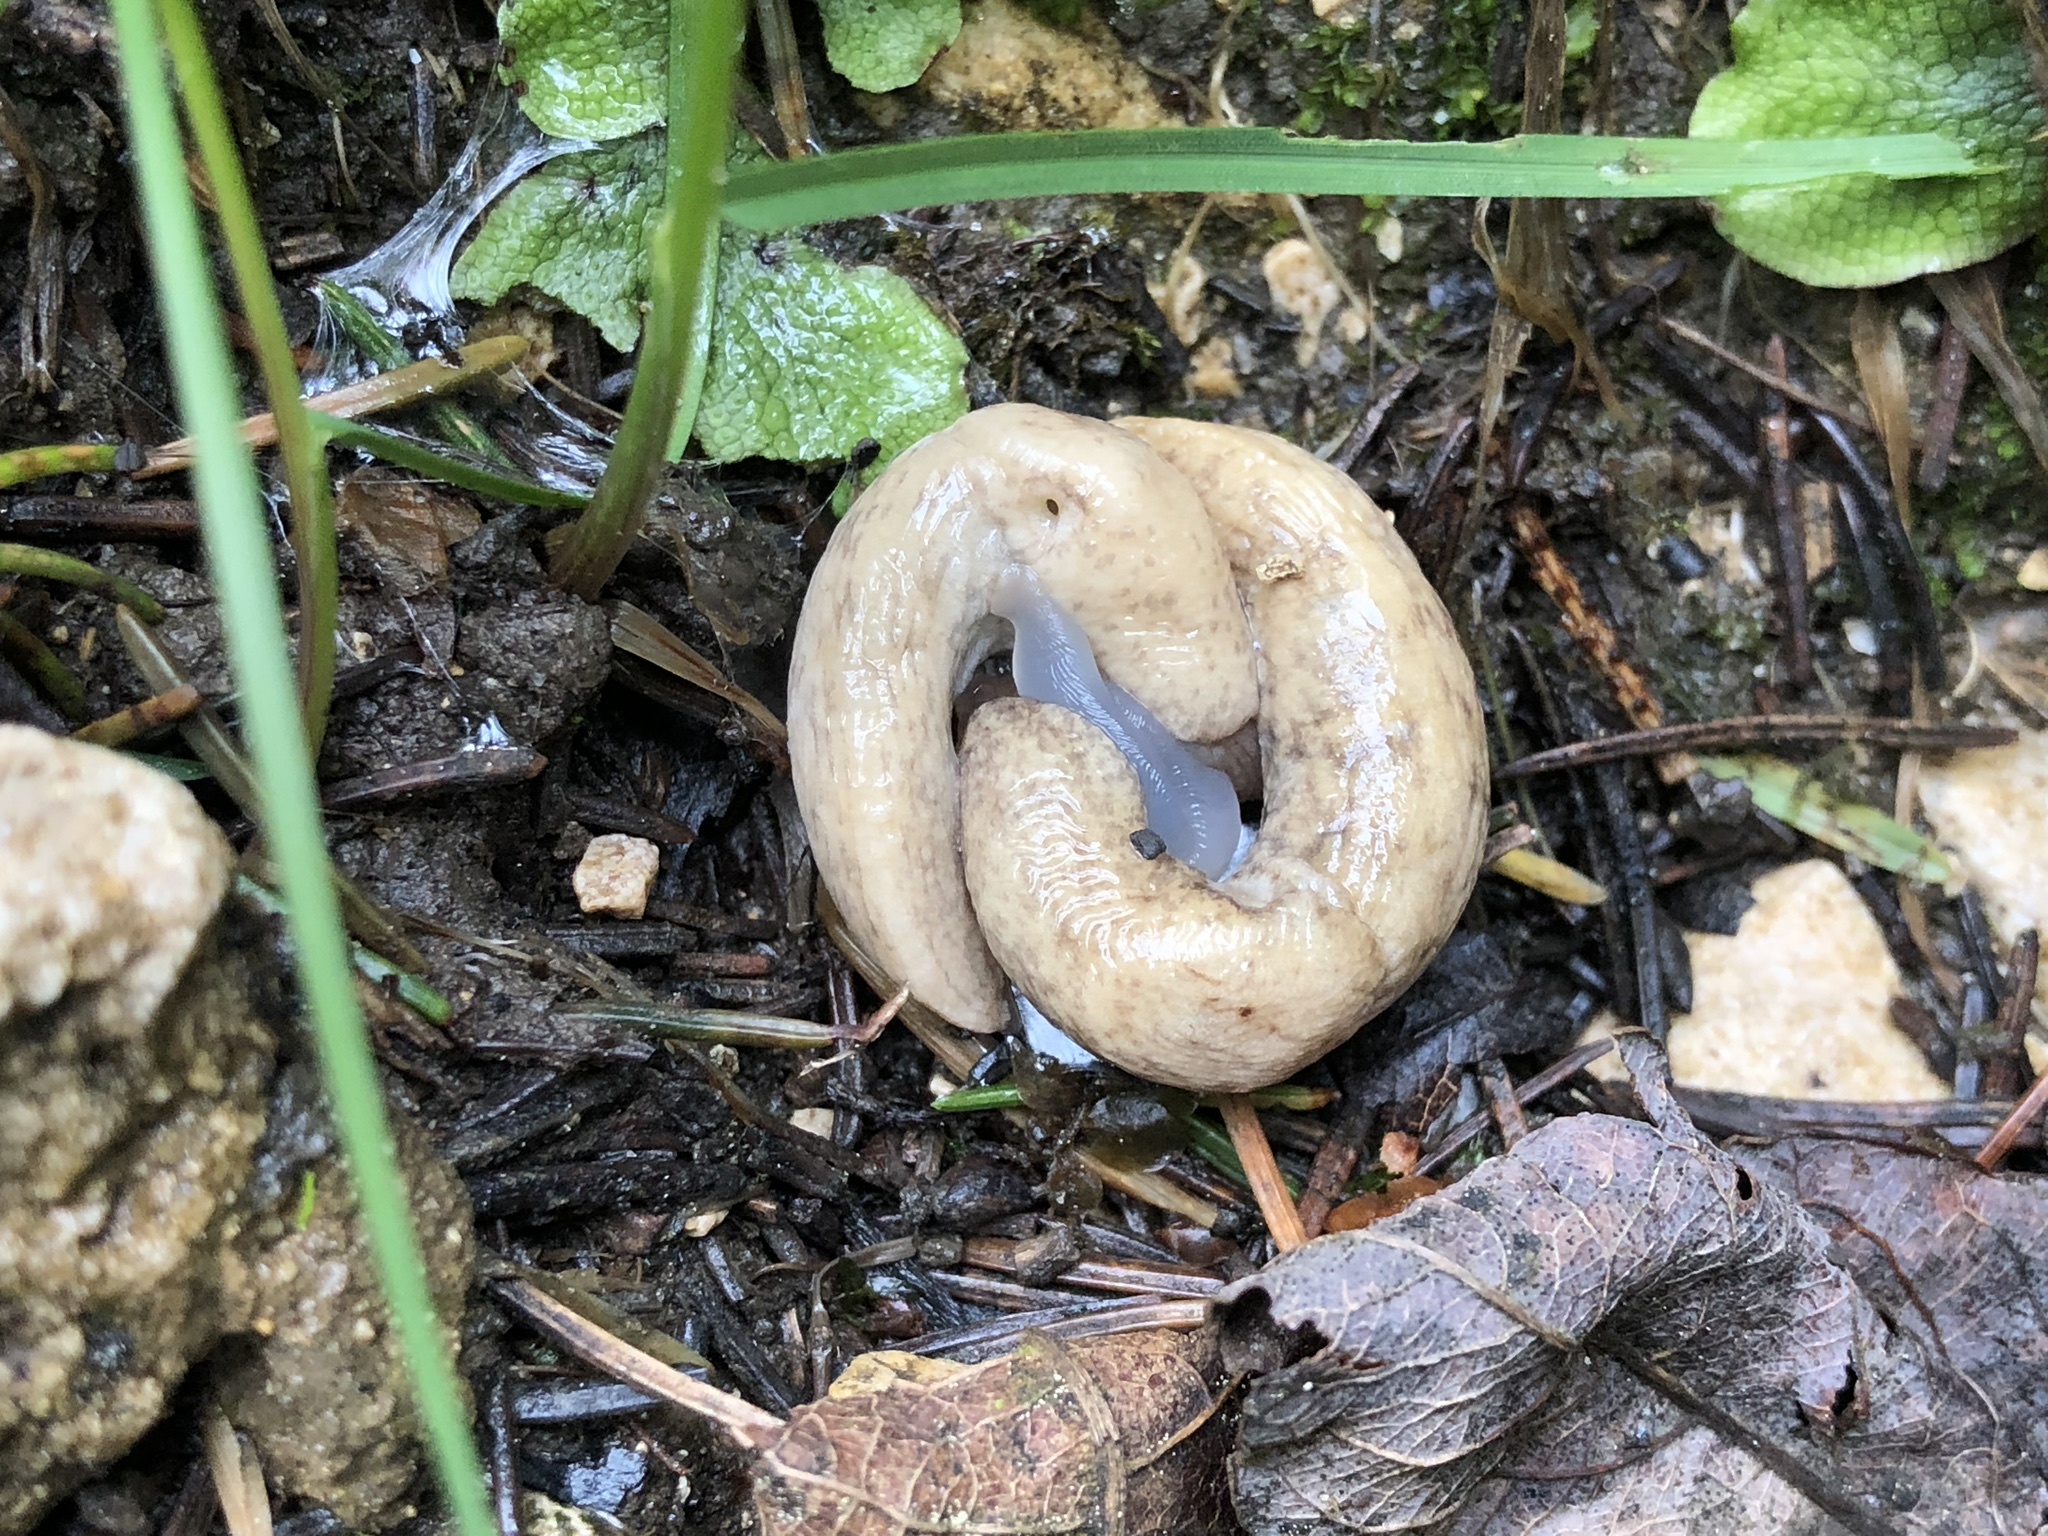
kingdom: Animalia
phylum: Mollusca
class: Gastropoda
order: Stylommatophora
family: Agriolimacidae
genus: Deroceras
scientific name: Deroceras reticulatum
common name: Gray field slug
